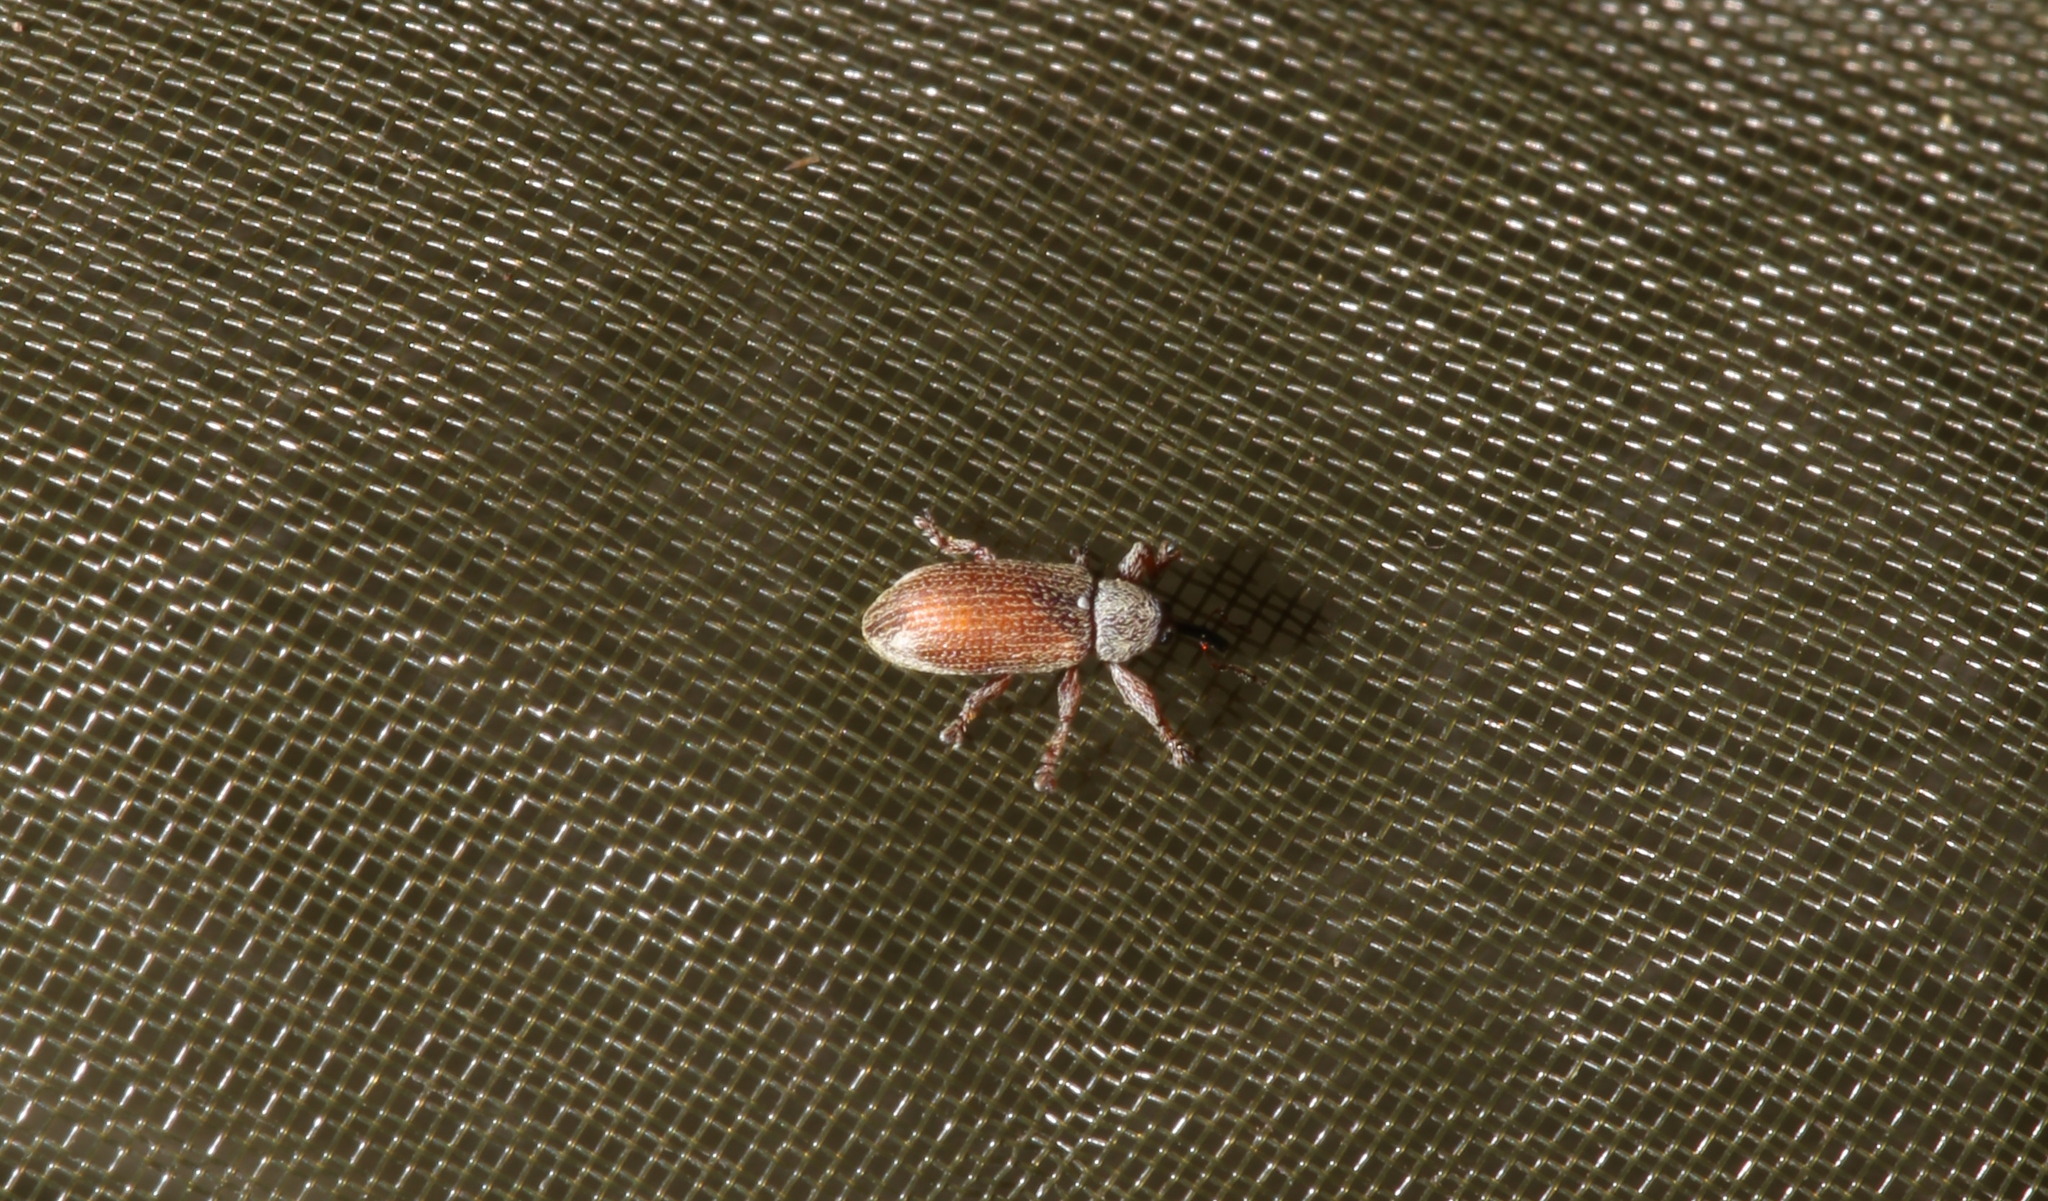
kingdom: Animalia
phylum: Arthropoda
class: Insecta
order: Coleoptera
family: Curculionidae
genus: Brachonyx
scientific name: Brachonyx pineti
